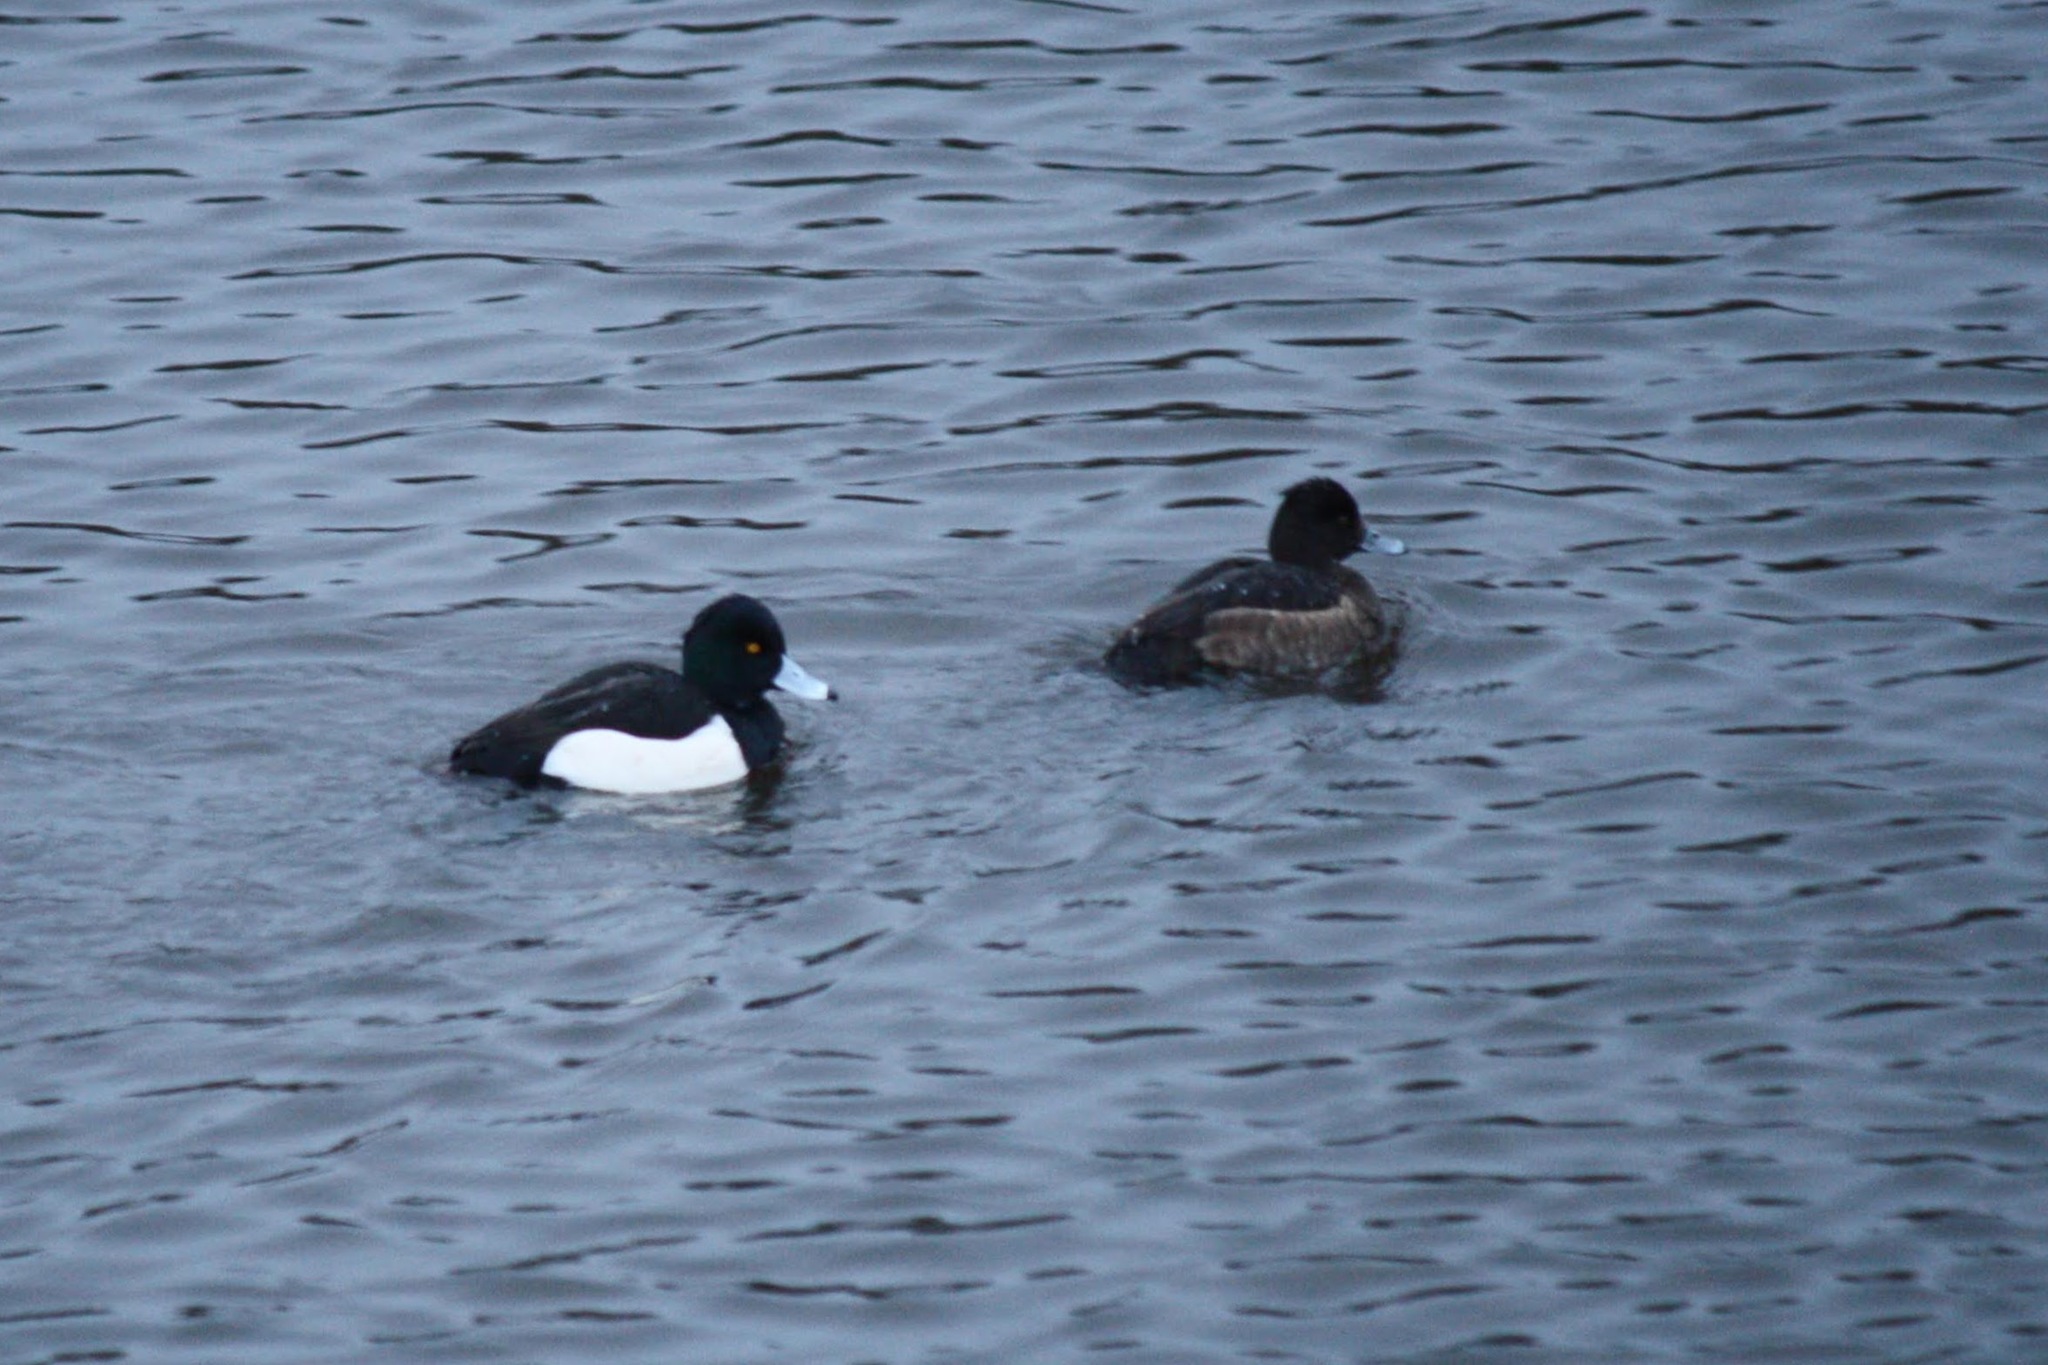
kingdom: Animalia
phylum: Chordata
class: Aves
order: Anseriformes
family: Anatidae
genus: Aythya
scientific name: Aythya fuligula
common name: Tufted duck
